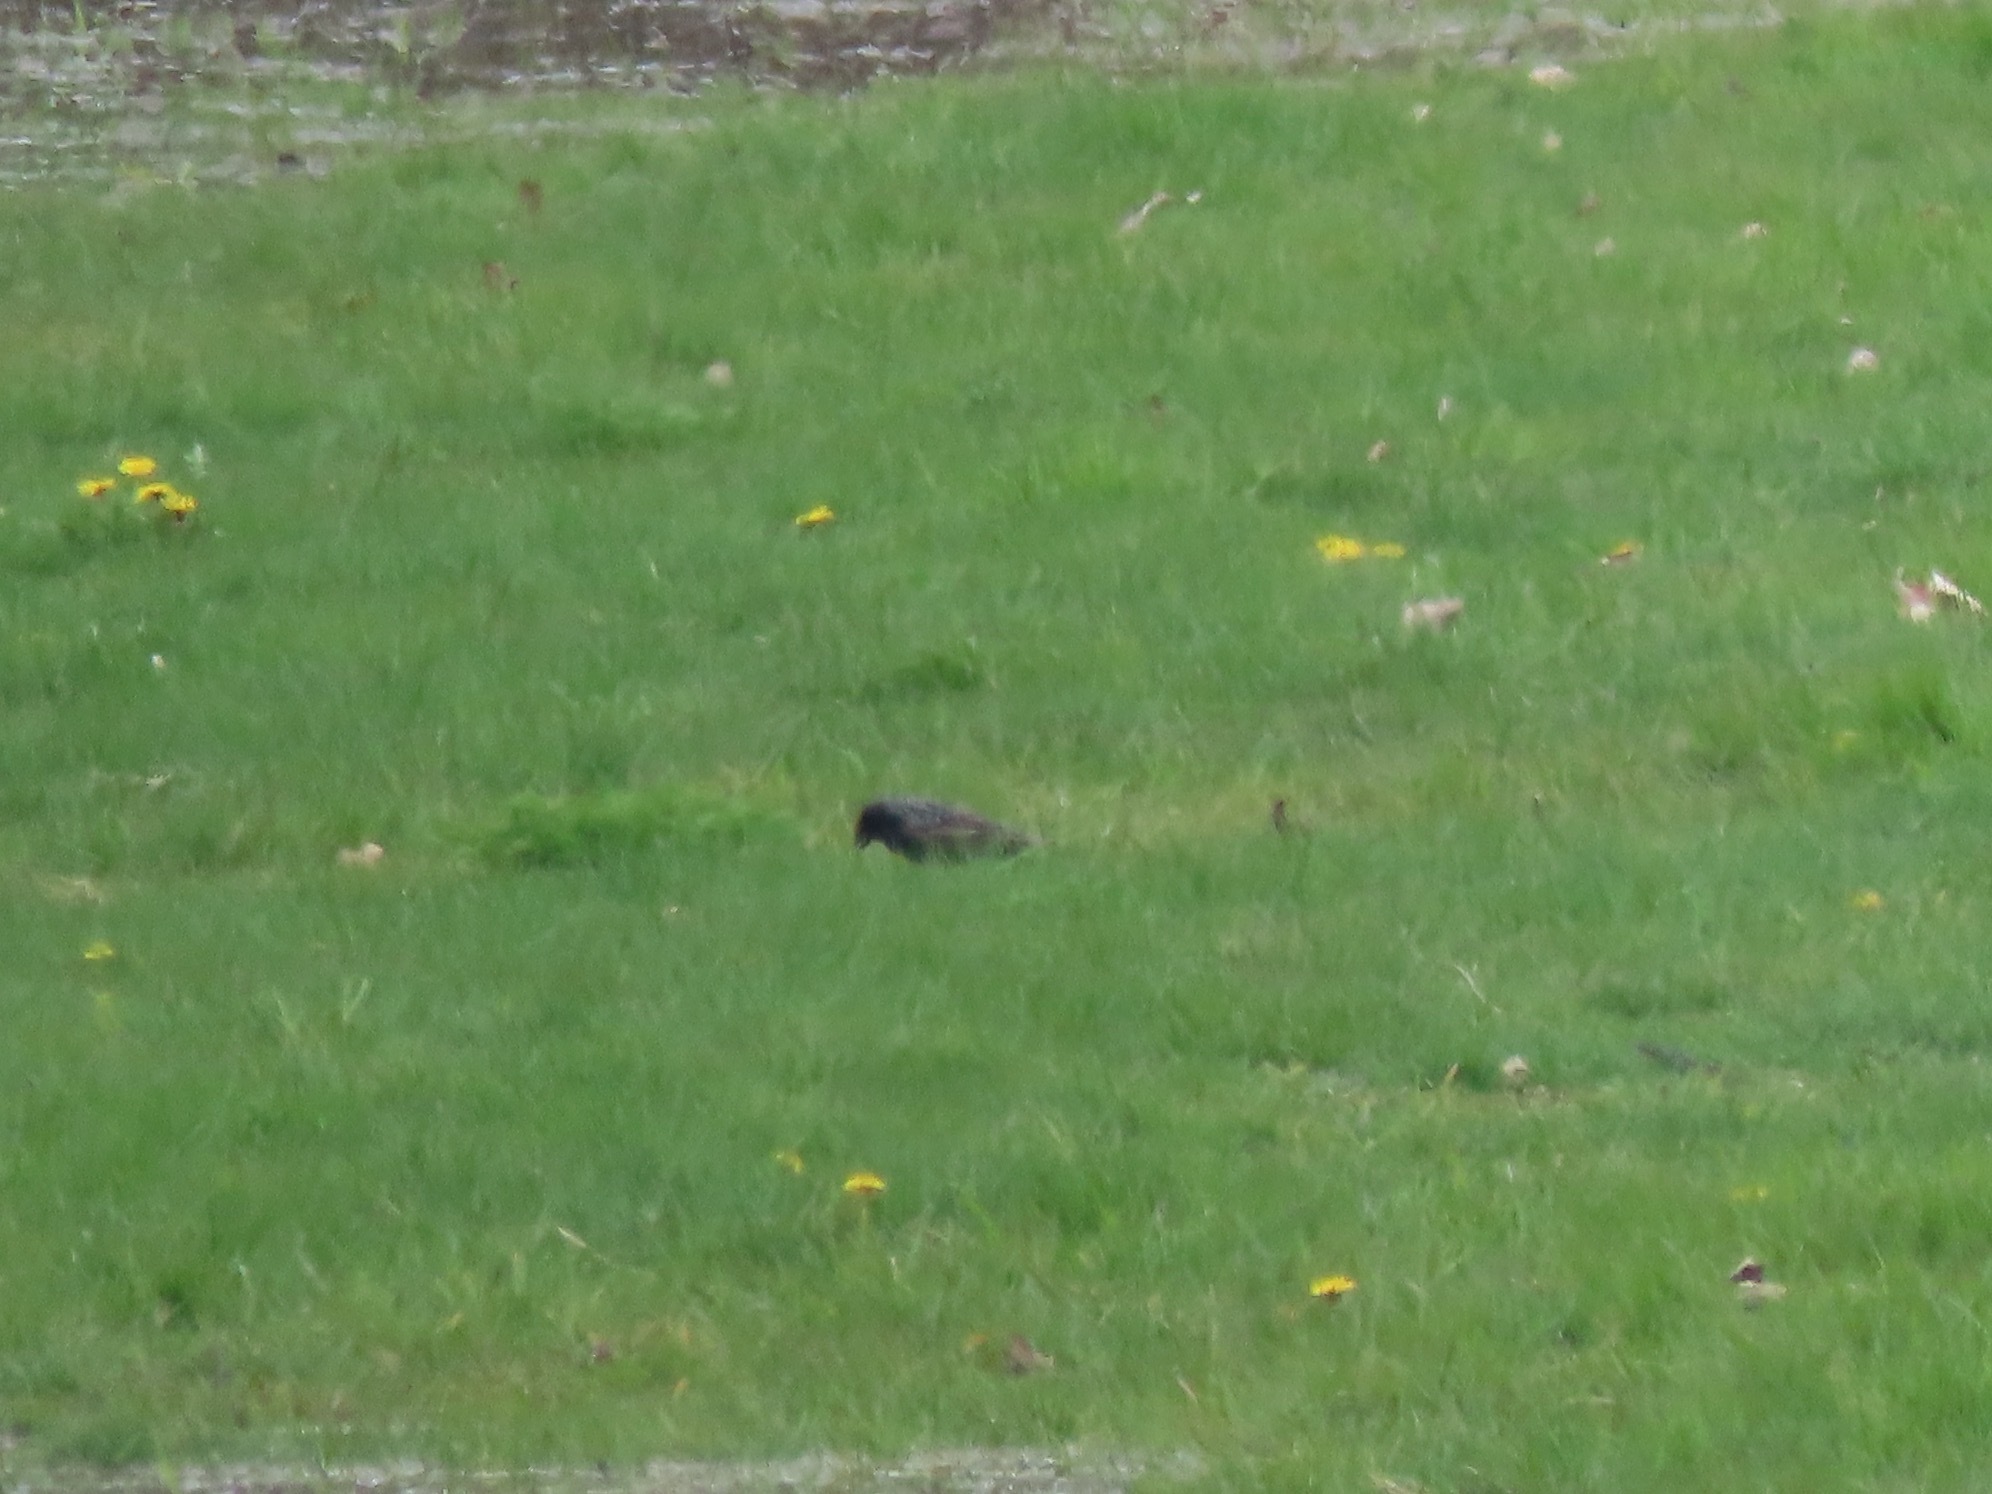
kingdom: Animalia
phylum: Chordata
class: Aves
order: Passeriformes
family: Sturnidae
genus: Sturnus
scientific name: Sturnus vulgaris
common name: Common starling
